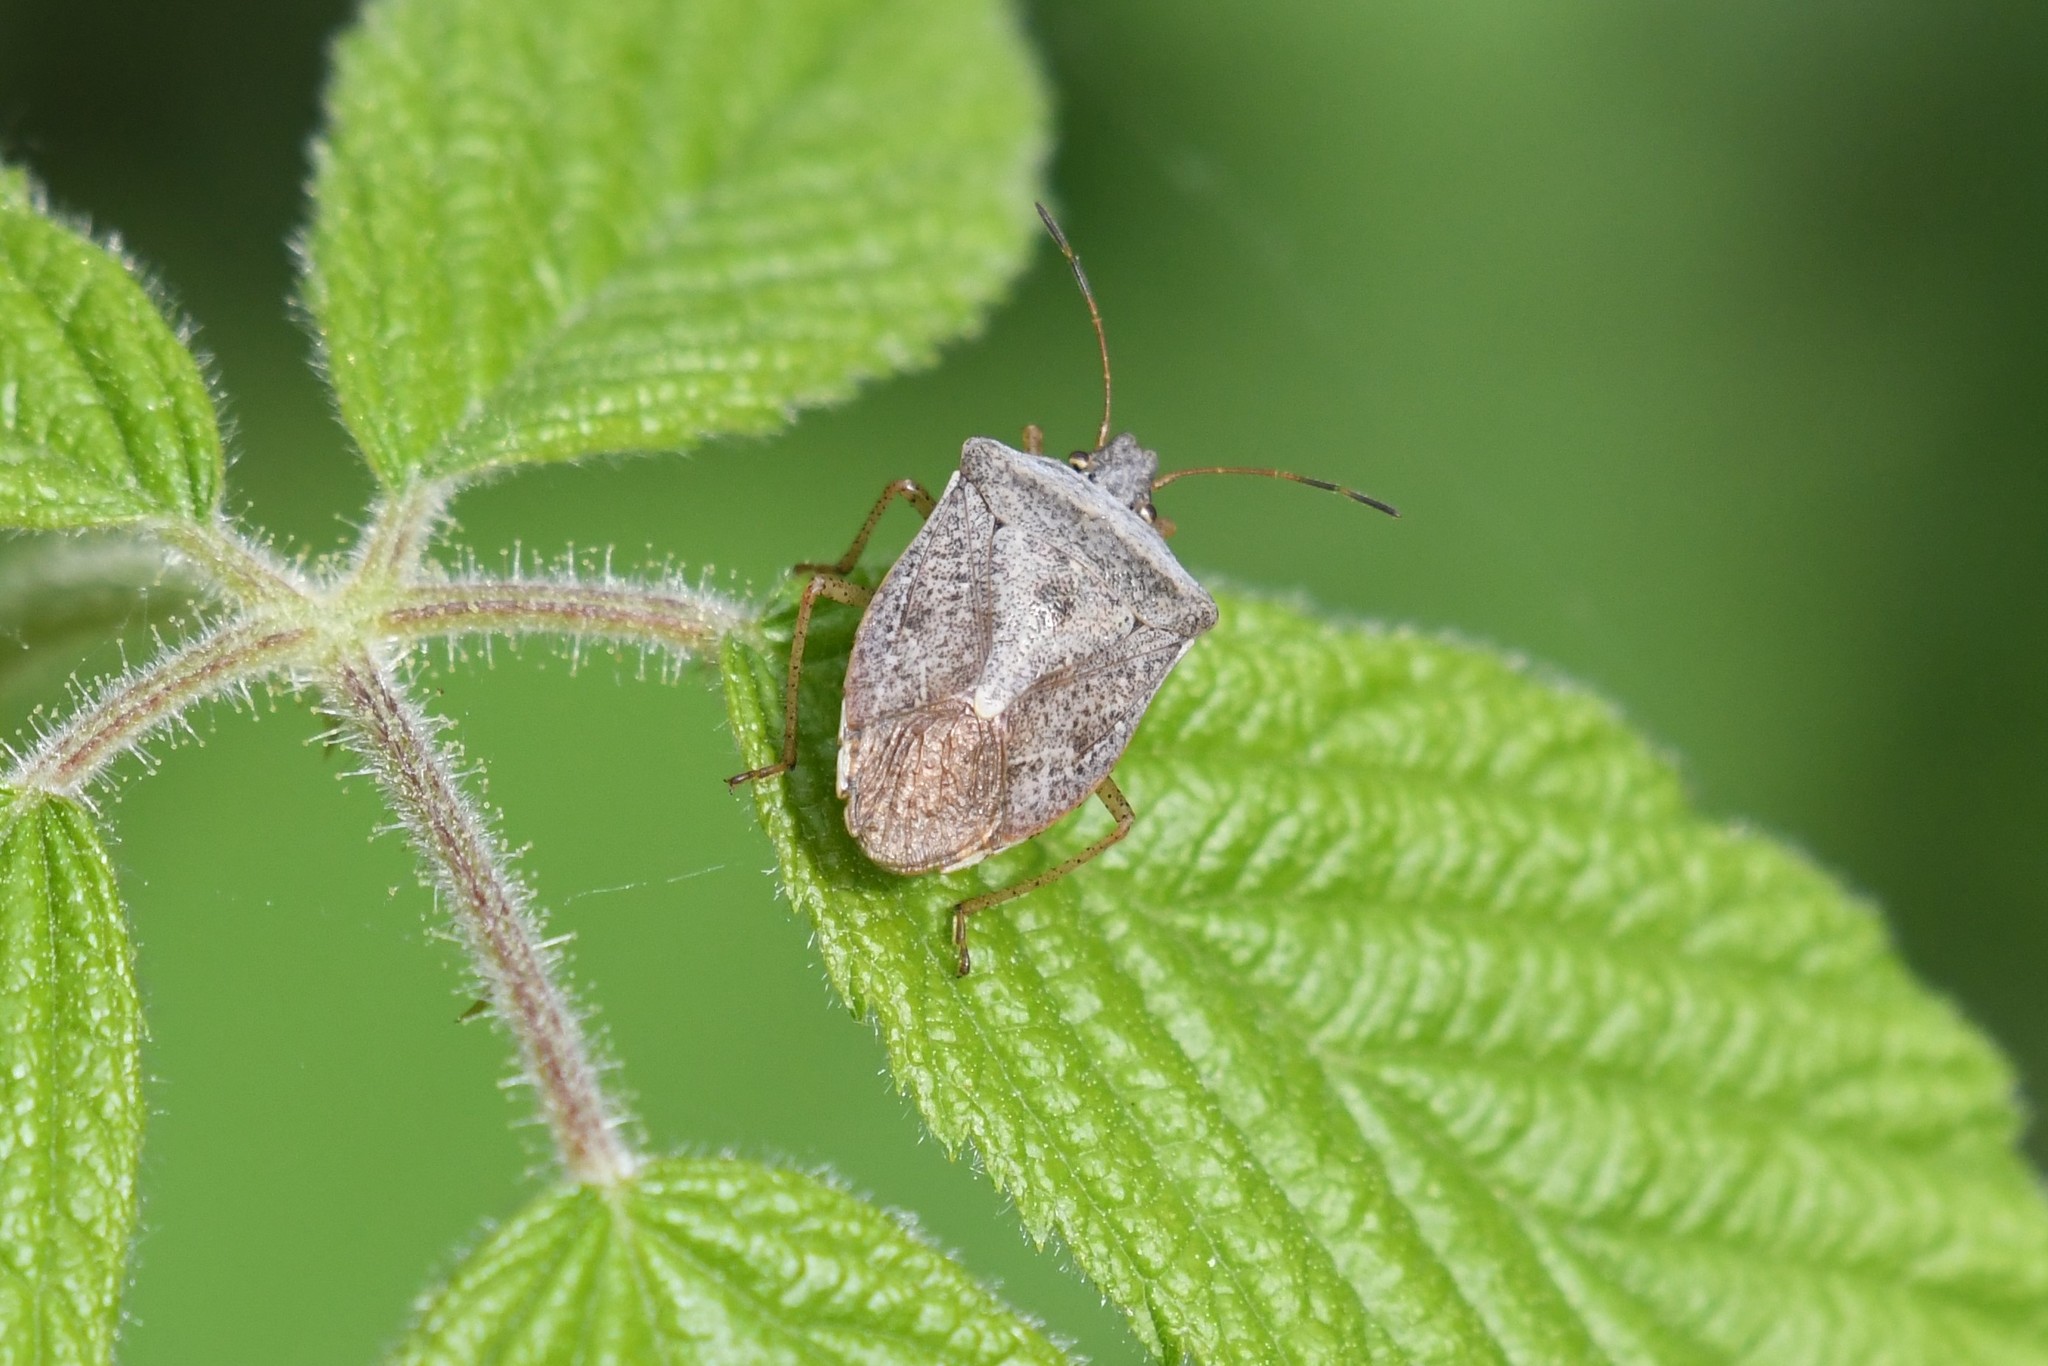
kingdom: Animalia
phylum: Arthropoda
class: Insecta
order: Hemiptera
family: Pentatomidae
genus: Euschistus
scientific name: Euschistus servus
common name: Brown stink bug
